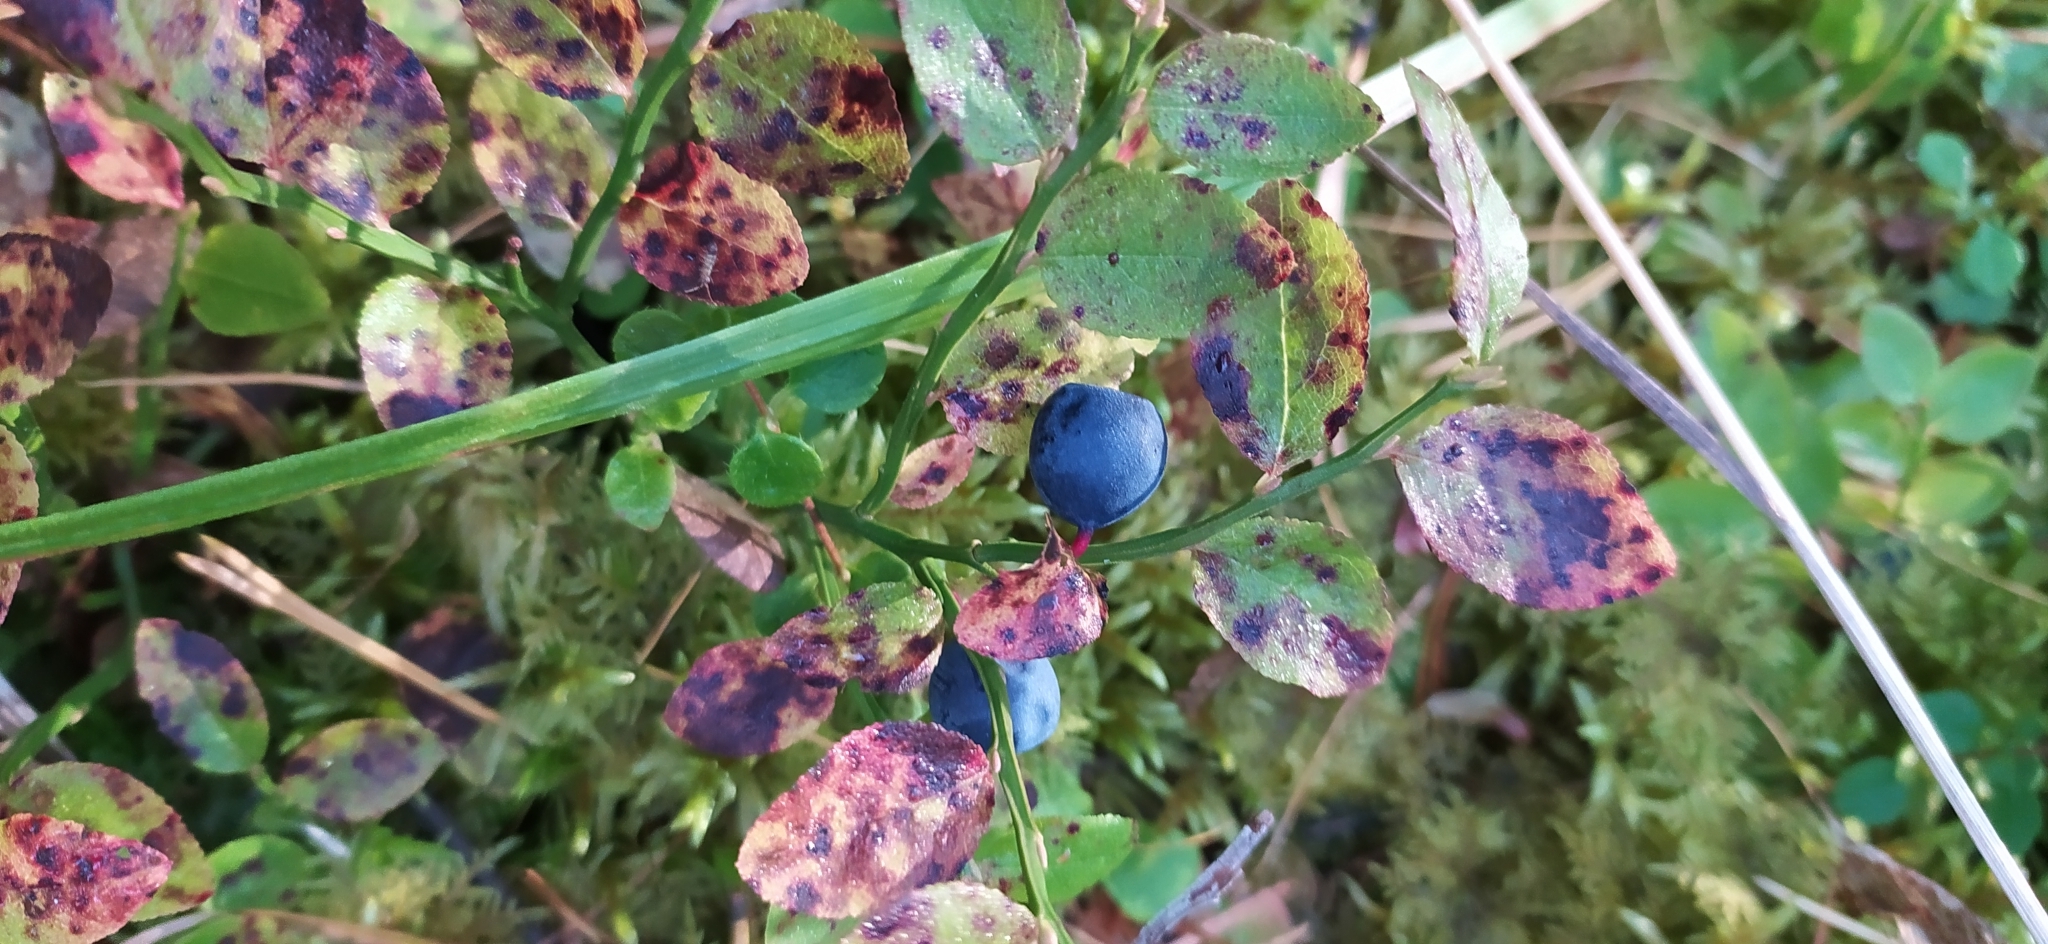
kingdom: Plantae
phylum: Tracheophyta
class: Magnoliopsida
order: Ericales
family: Ericaceae
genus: Vaccinium
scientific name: Vaccinium myrtillus
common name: Bilberry
